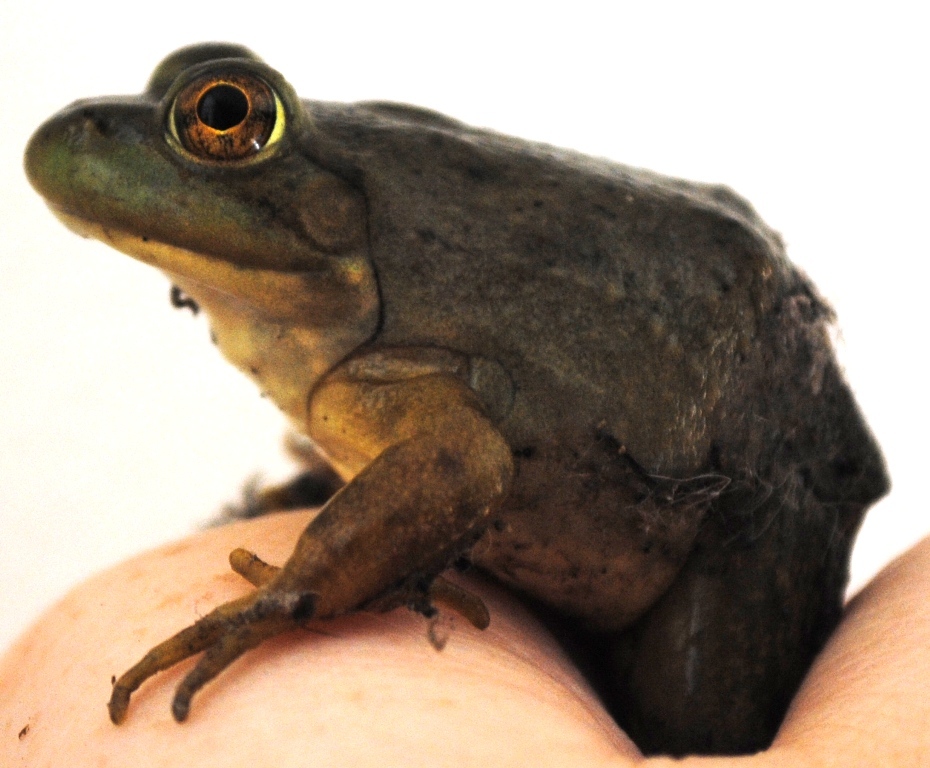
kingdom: Animalia
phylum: Chordata
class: Amphibia
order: Anura
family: Ranidae
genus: Lithobates
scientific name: Lithobates catesbeianus
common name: American bullfrog
